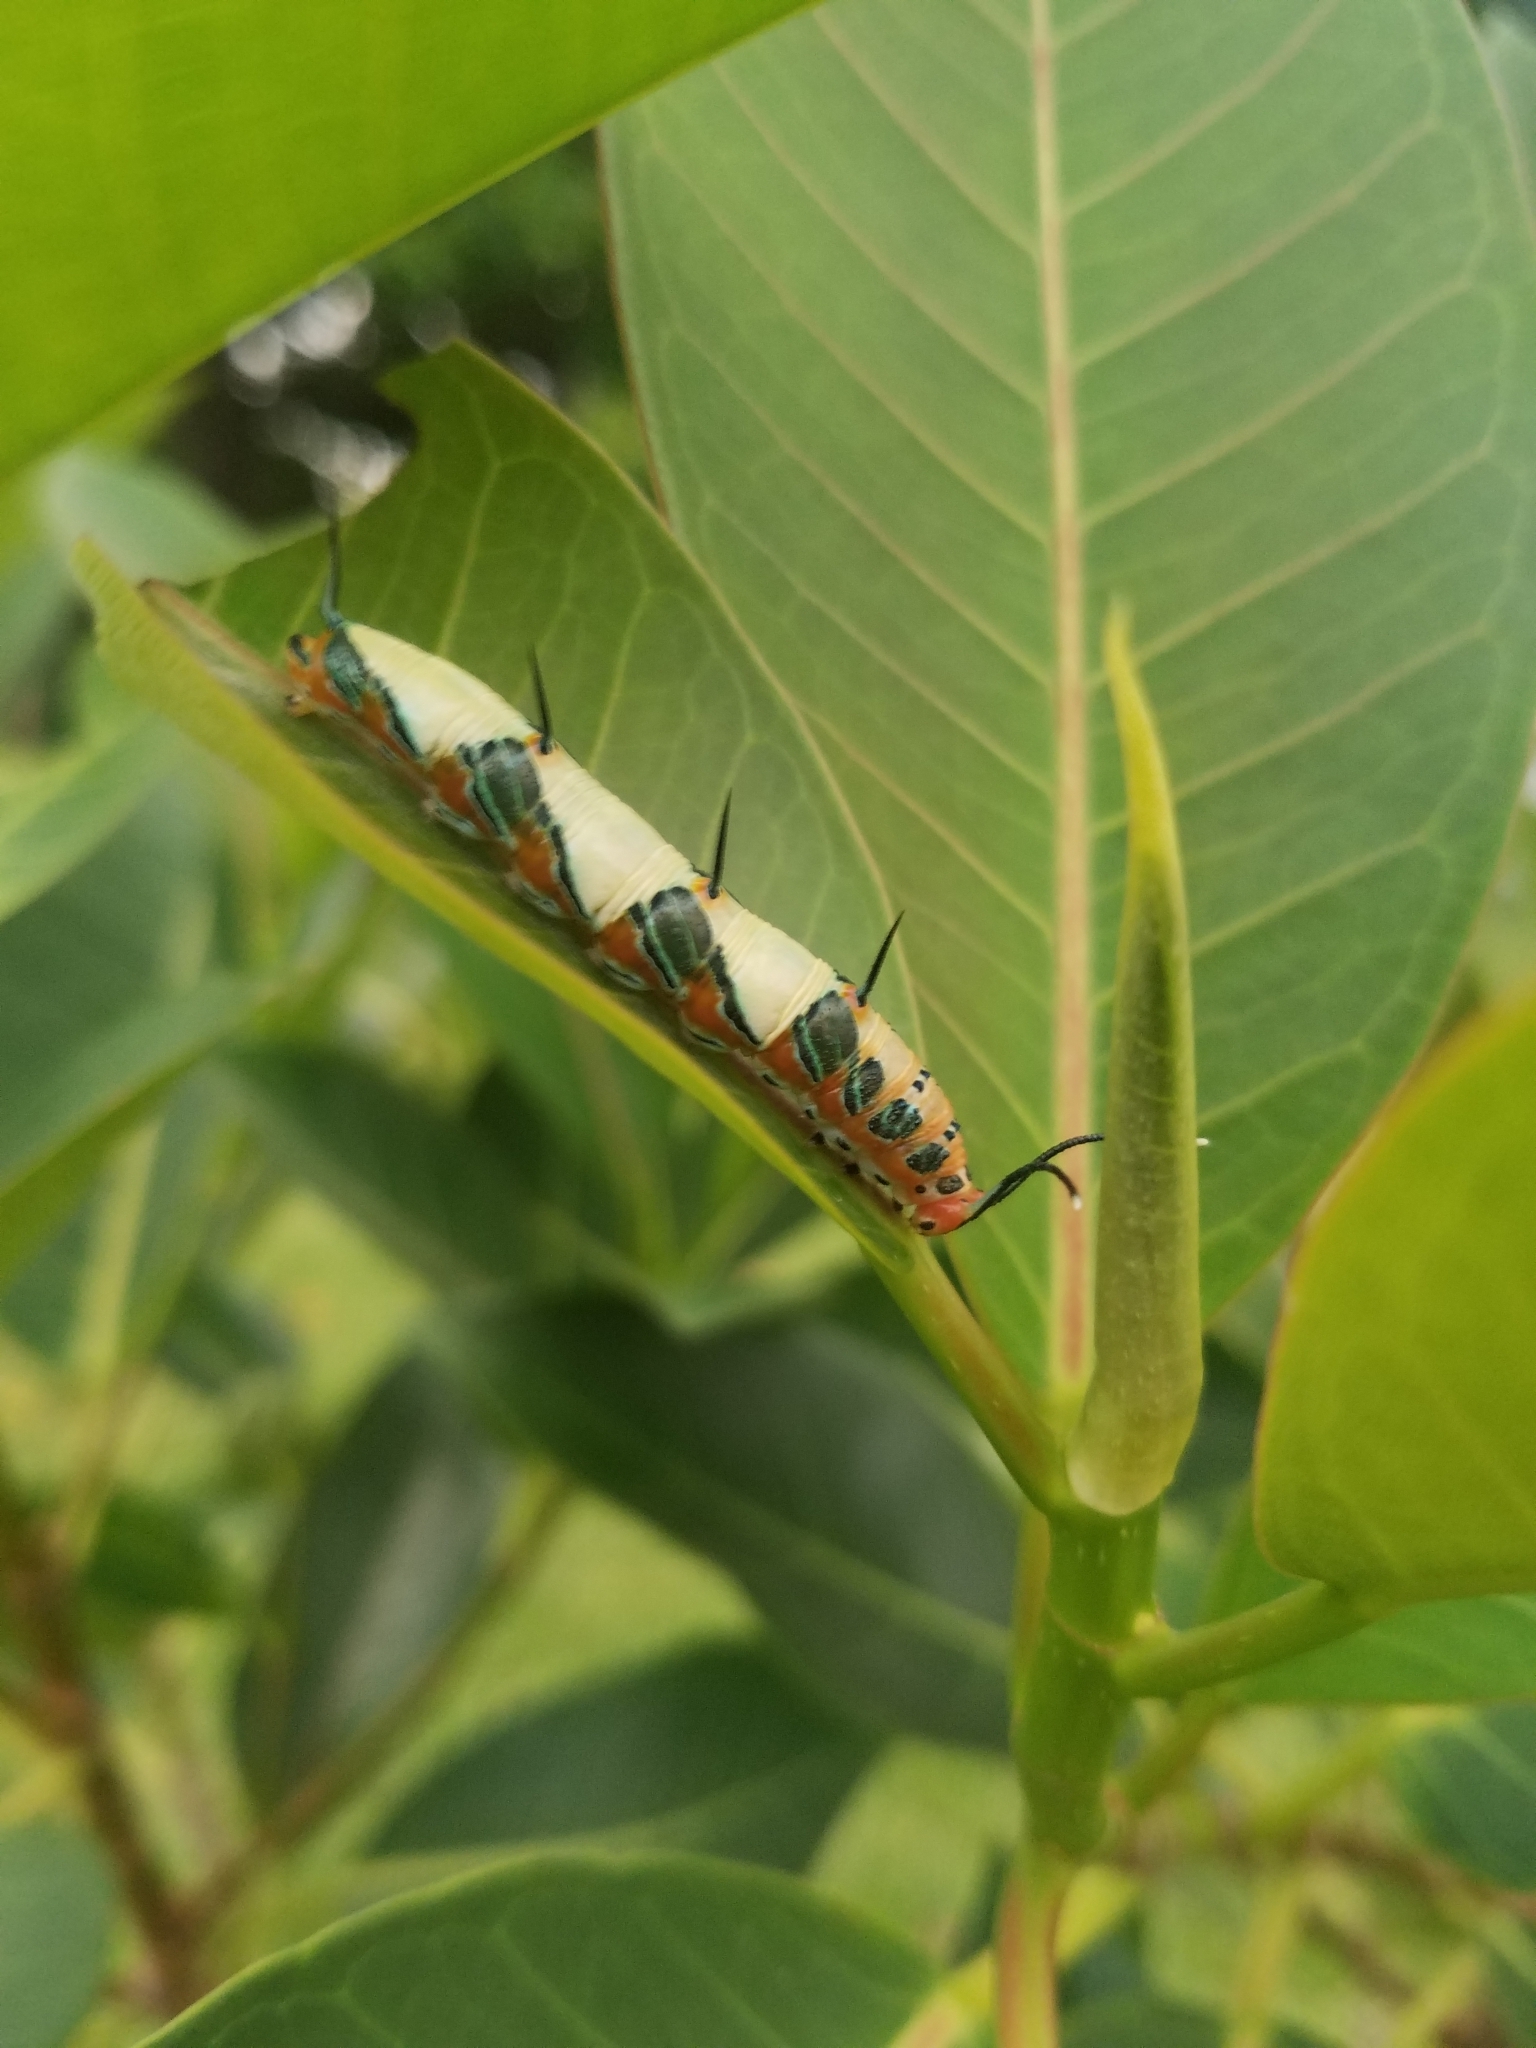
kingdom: Animalia
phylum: Arthropoda
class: Insecta
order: Lepidoptera
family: Nymphalidae
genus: Marpesia
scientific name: Marpesia petreus
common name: Red dagger wing
